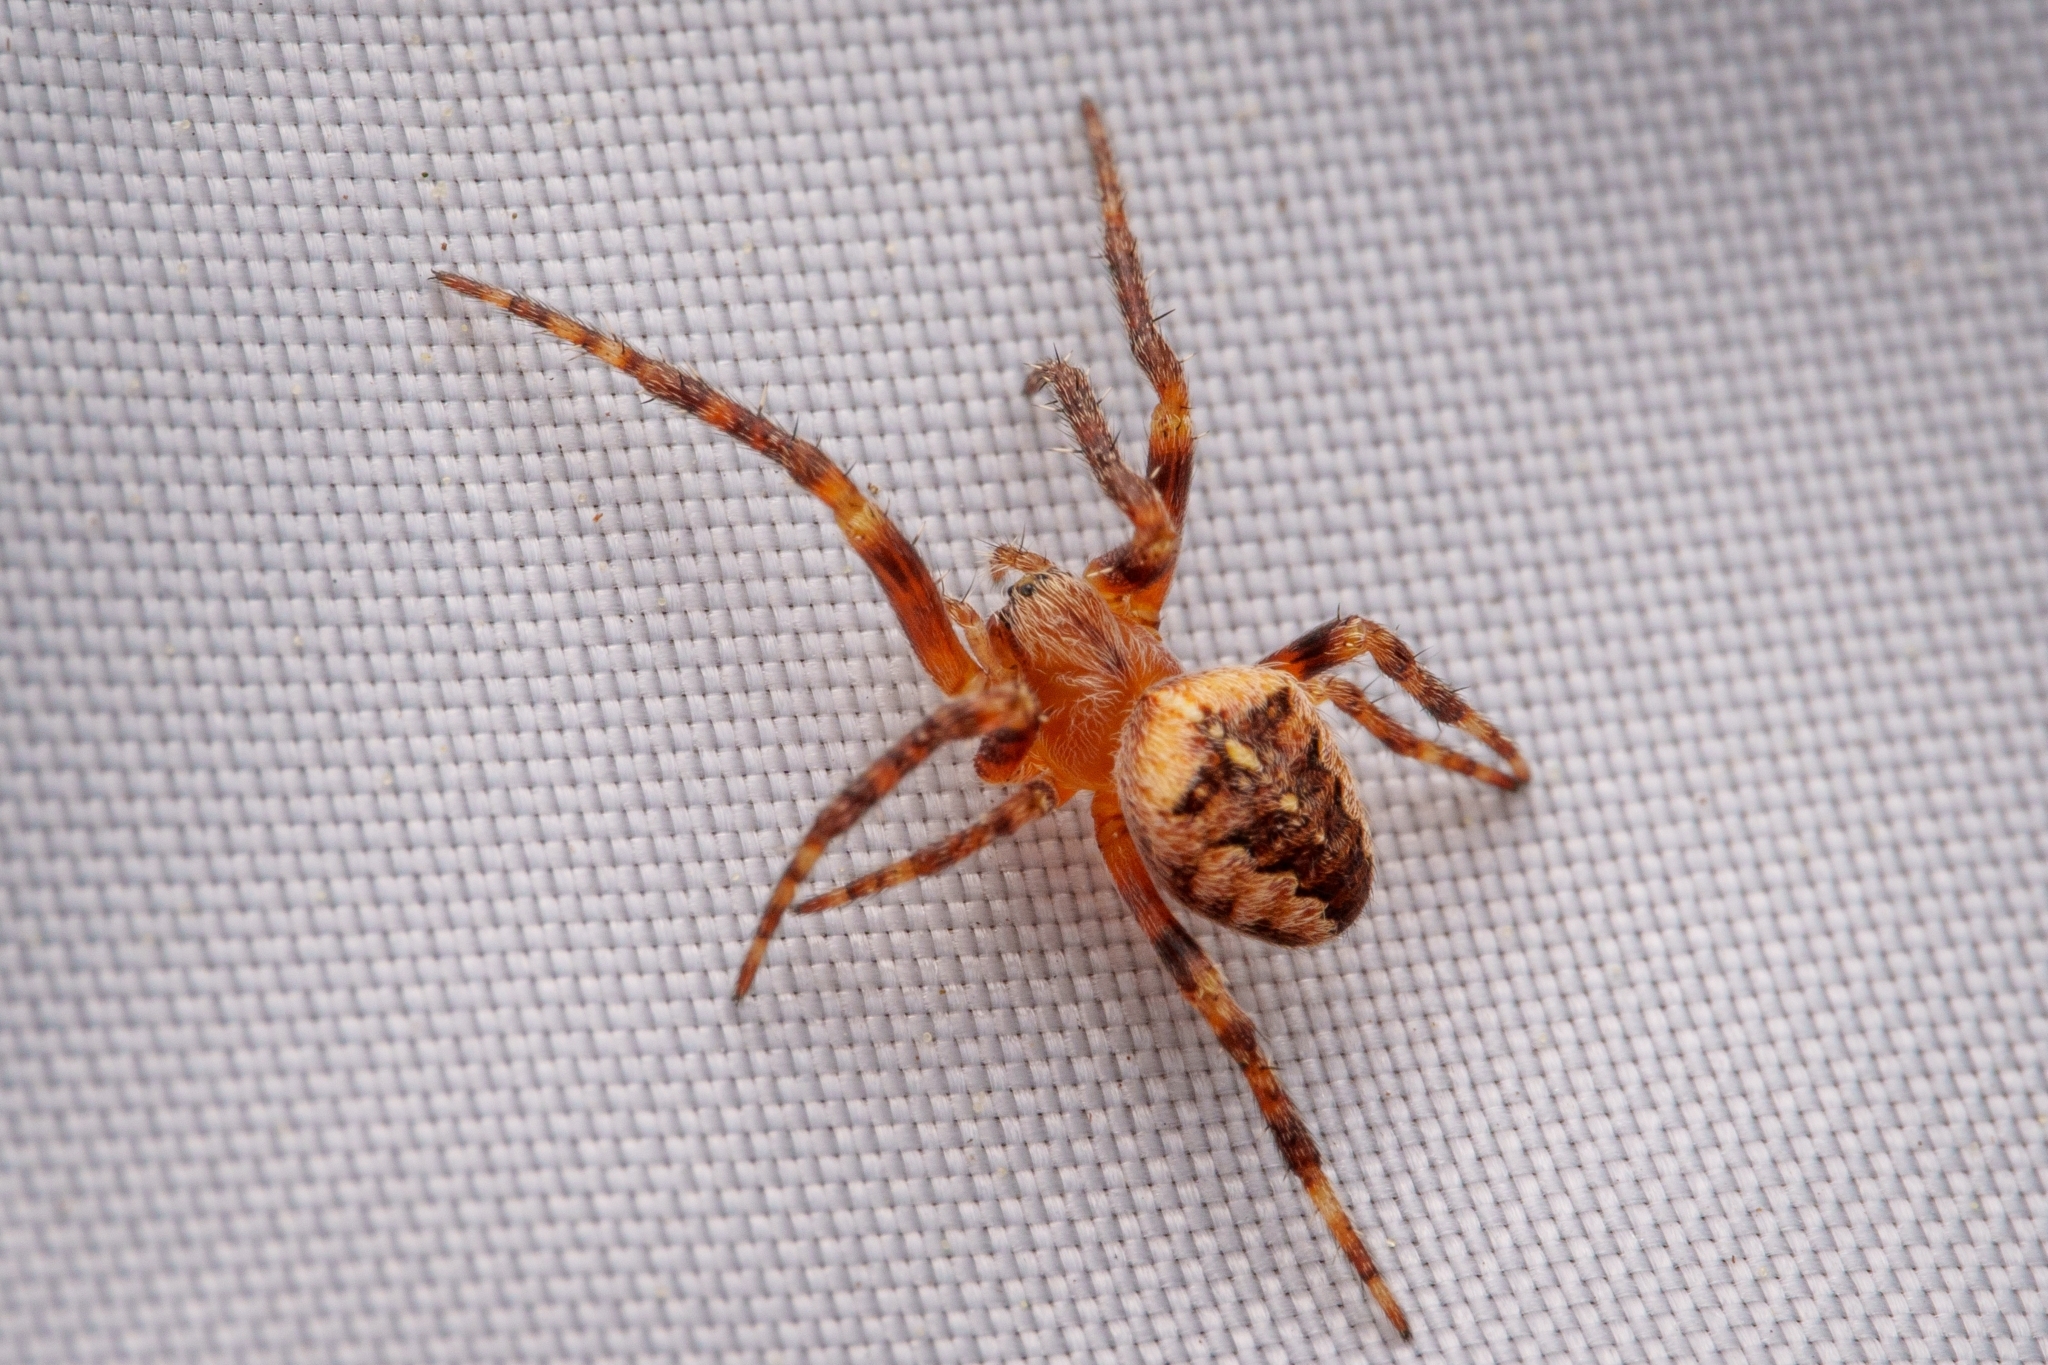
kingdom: Animalia
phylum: Arthropoda
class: Arachnida
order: Araneae
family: Araneidae
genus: Araneus
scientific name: Araneus diadematus
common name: Cross orbweaver
